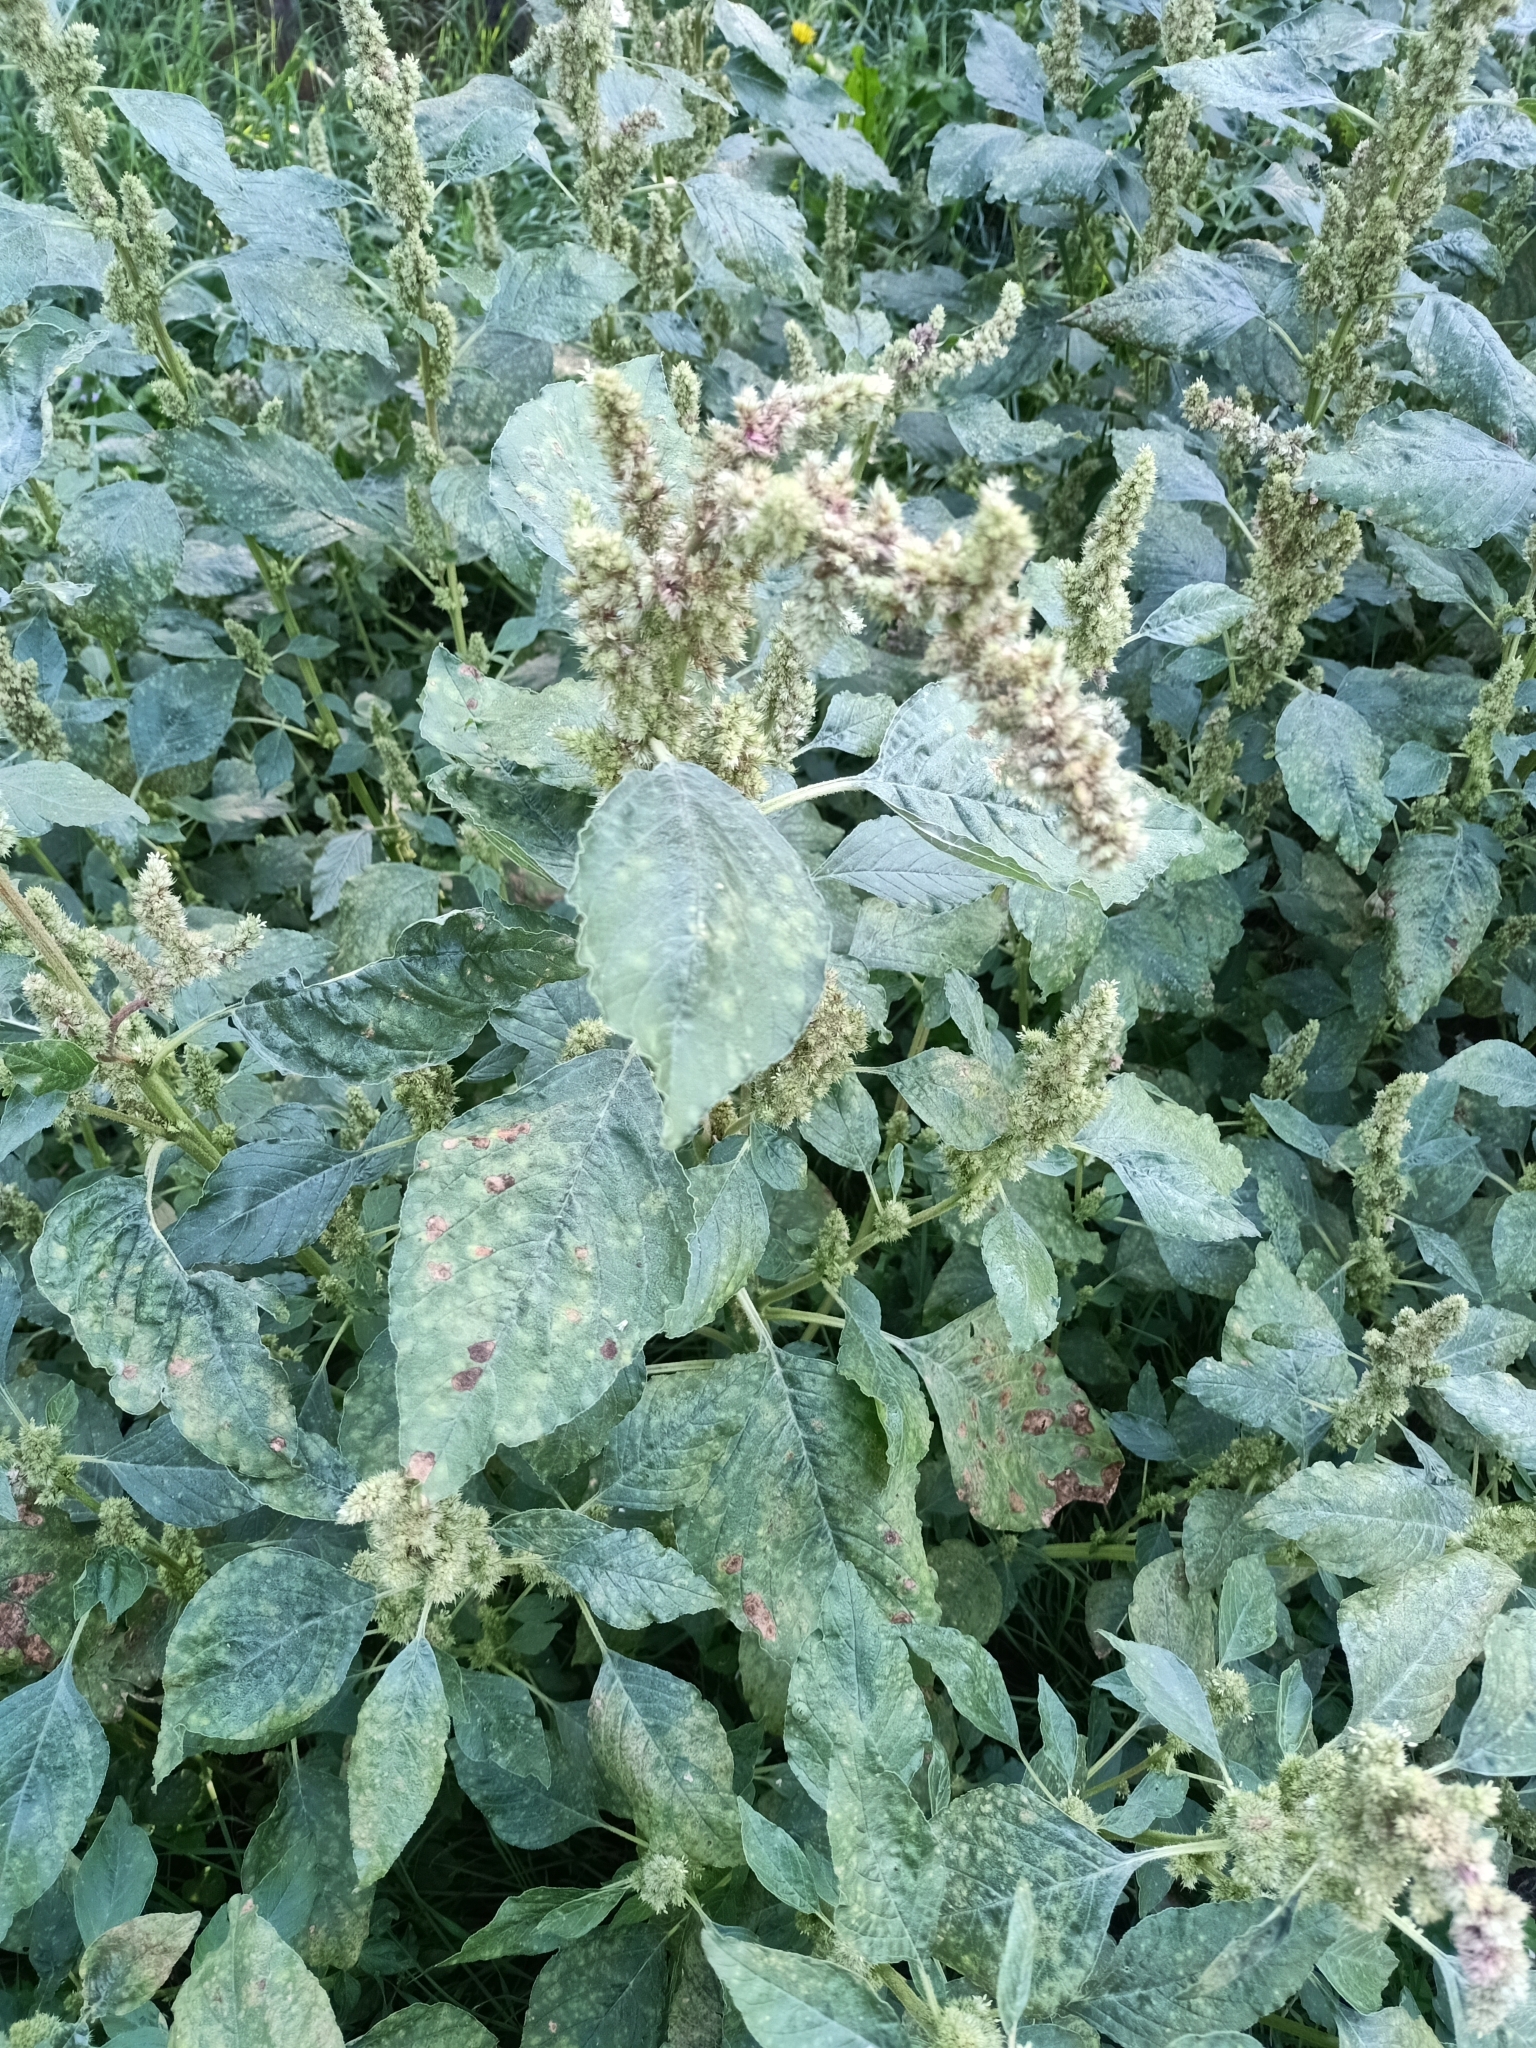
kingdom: Plantae
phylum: Tracheophyta
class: Magnoliopsida
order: Caryophyllales
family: Amaranthaceae
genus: Amaranthus
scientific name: Amaranthus retroflexus
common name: Redroot amaranth
